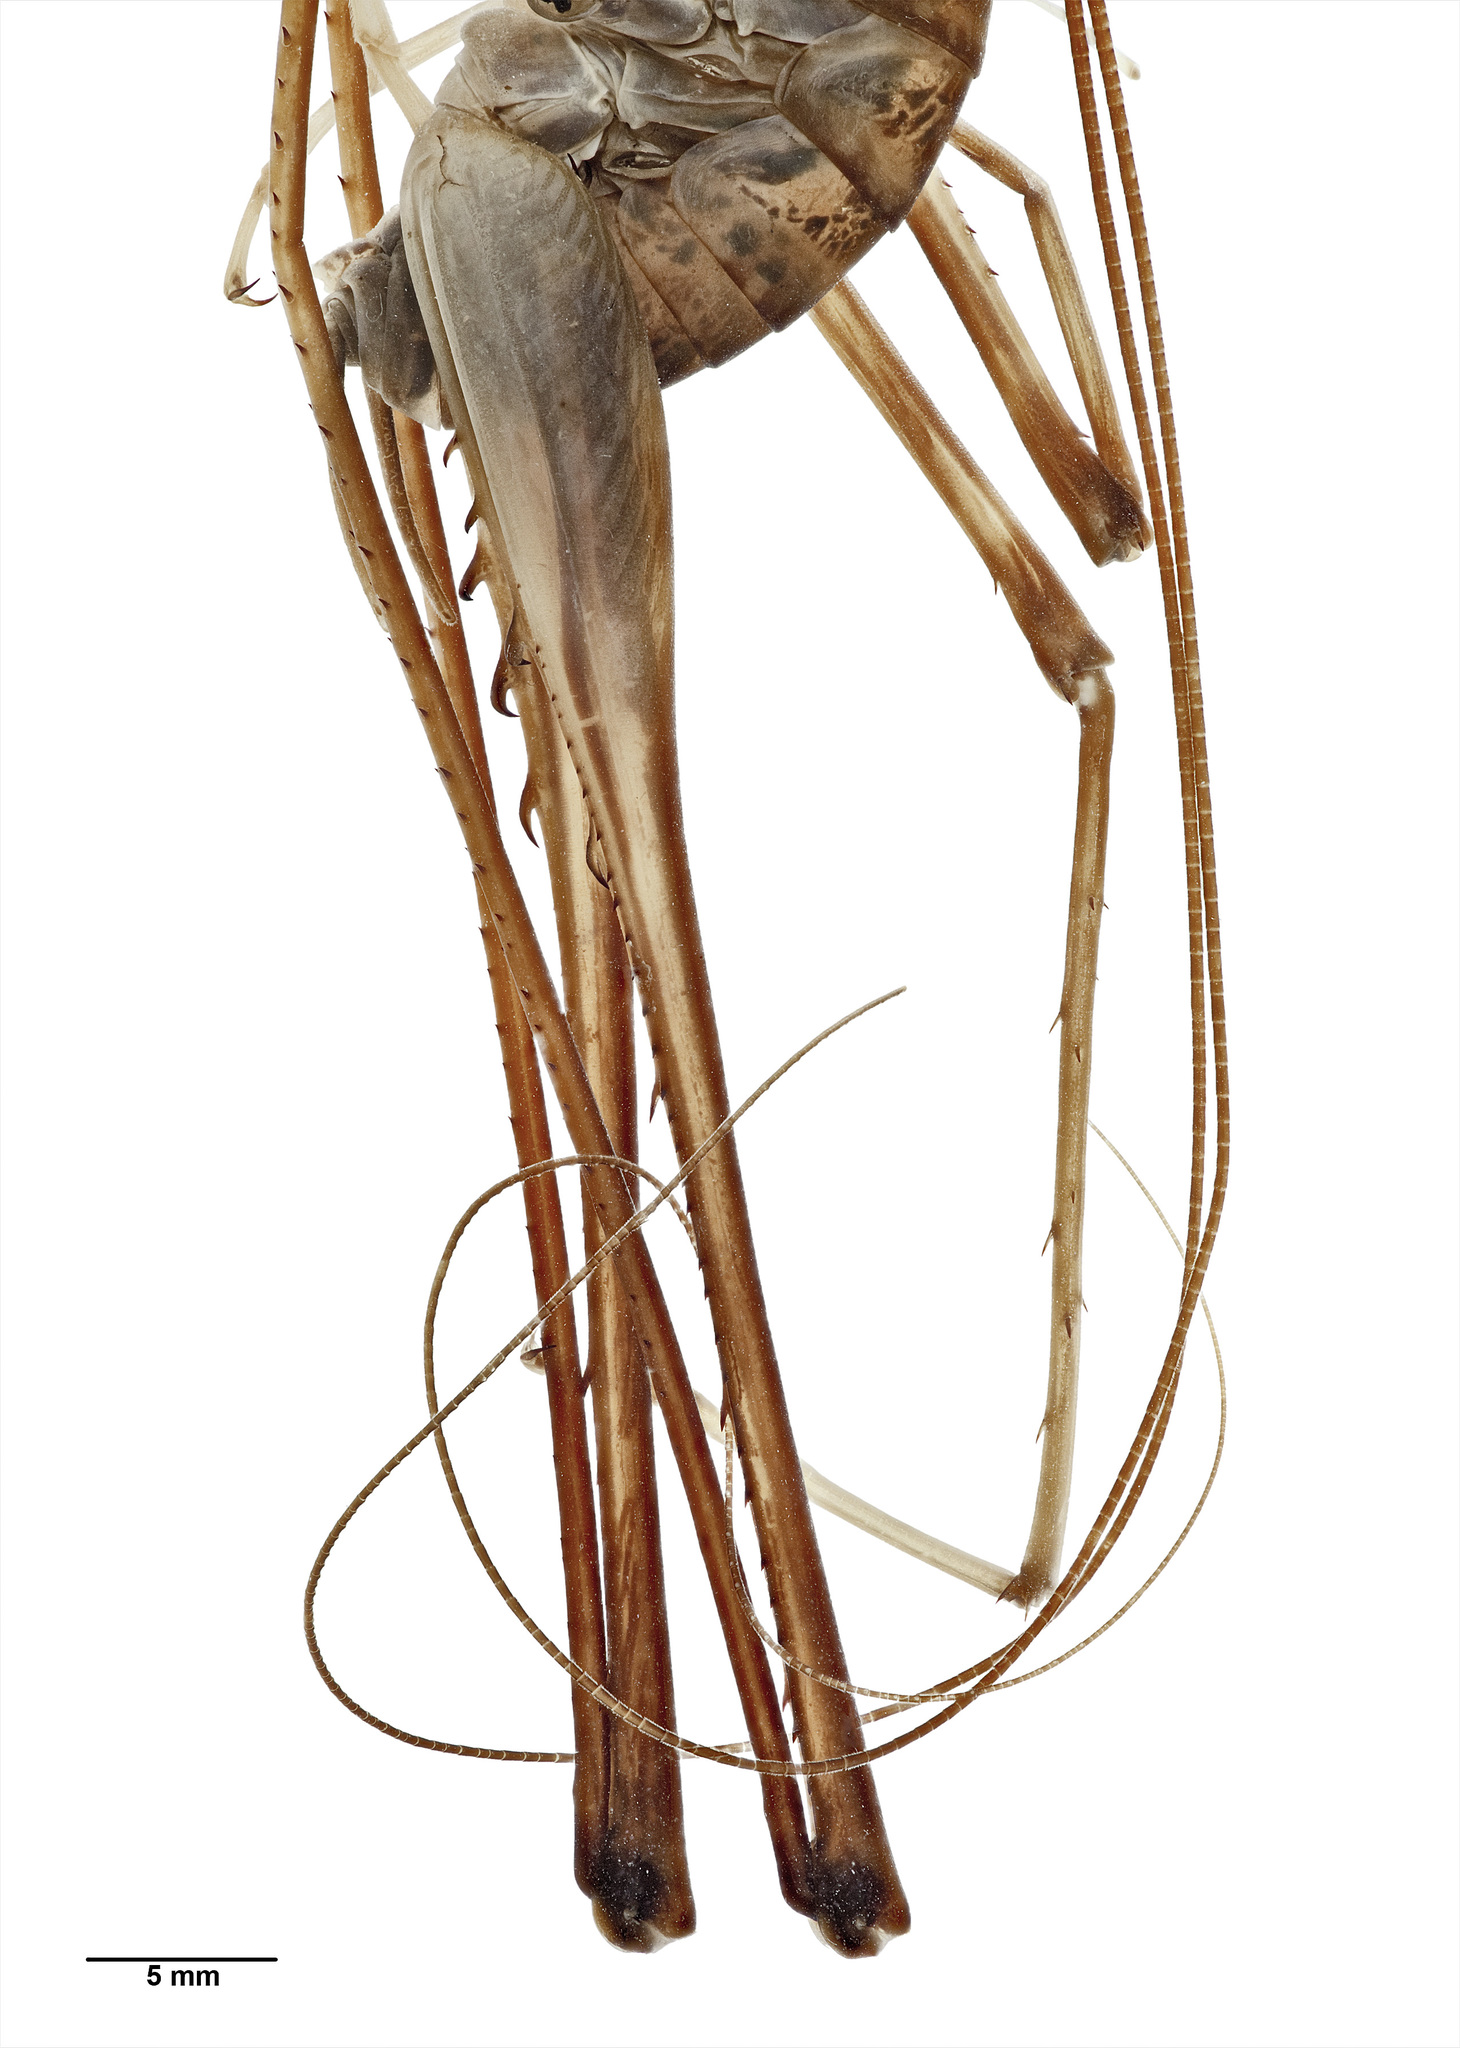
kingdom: Animalia
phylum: Arthropoda
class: Insecta
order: Orthoptera
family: Rhaphidophoridae
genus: Pachyrhamma
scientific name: Pachyrhamma uncata
